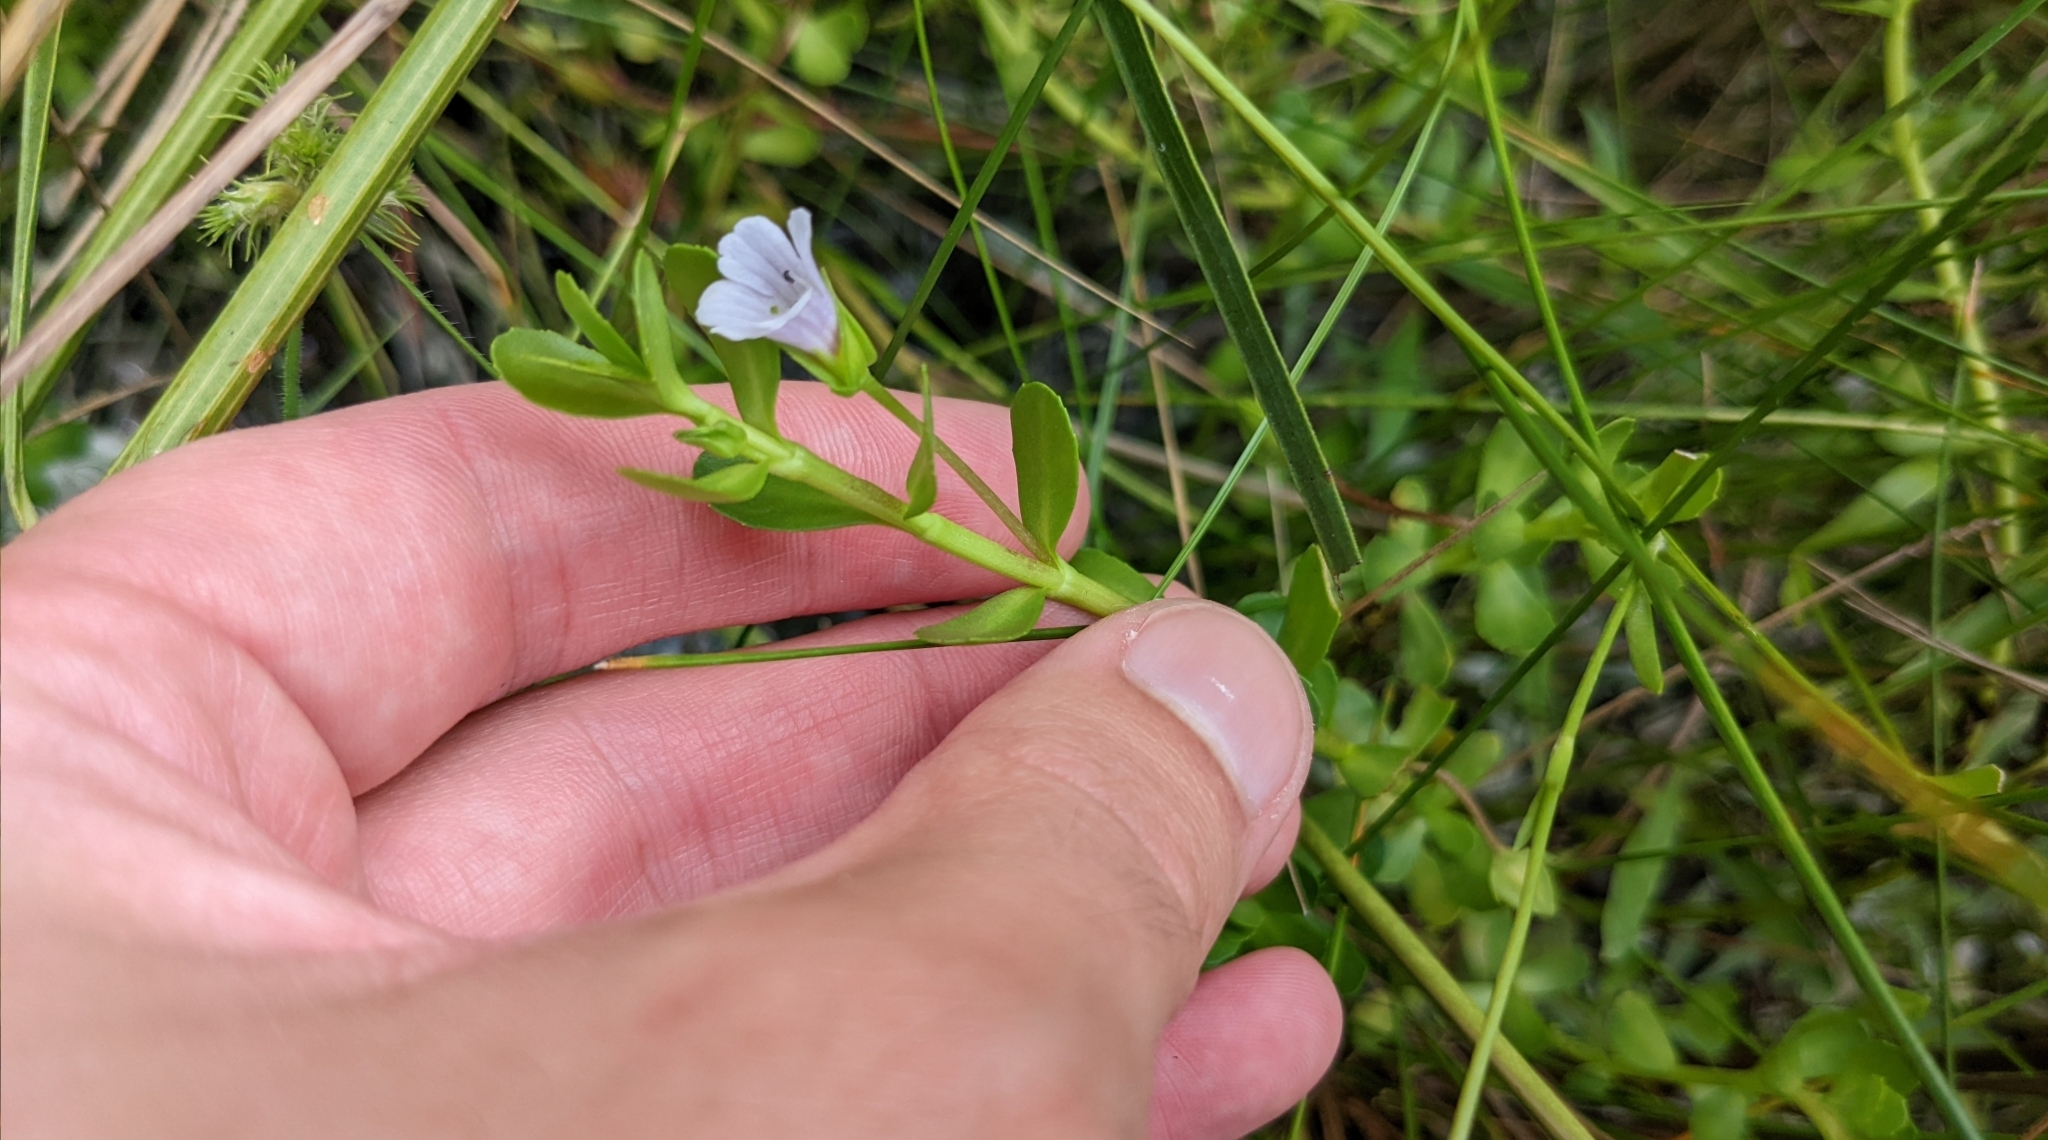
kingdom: Plantae
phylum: Tracheophyta
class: Magnoliopsida
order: Lamiales
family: Plantaginaceae
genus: Bacopa
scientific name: Bacopa monnieri
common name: Indian-pennywort
